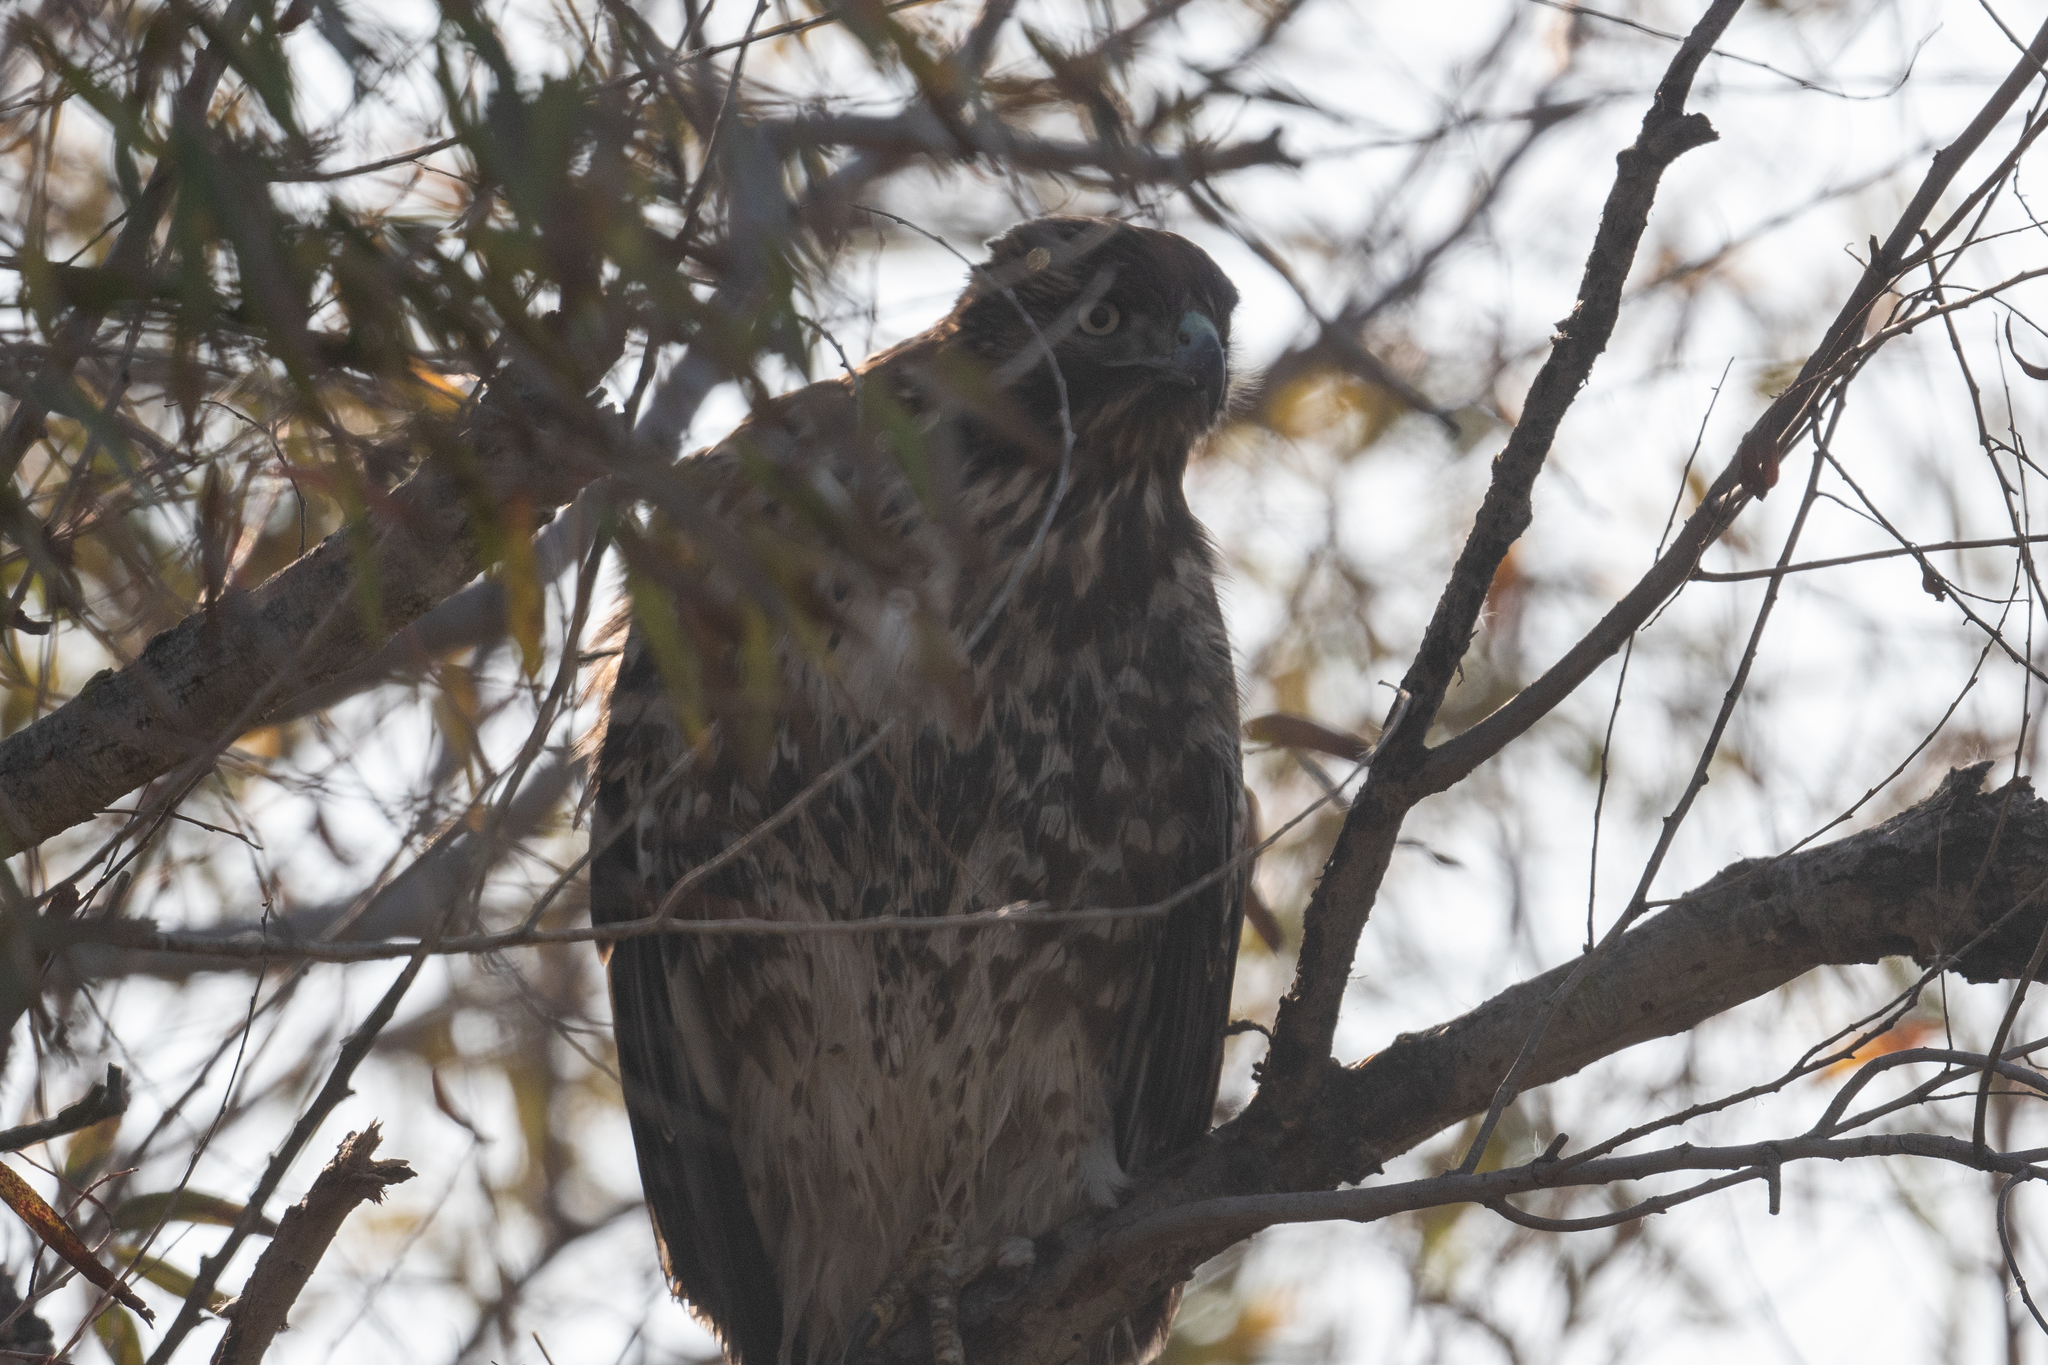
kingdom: Animalia
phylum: Chordata
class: Aves
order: Accipitriformes
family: Accipitridae
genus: Buteo
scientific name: Buteo jamaicensis
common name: Red-tailed hawk
